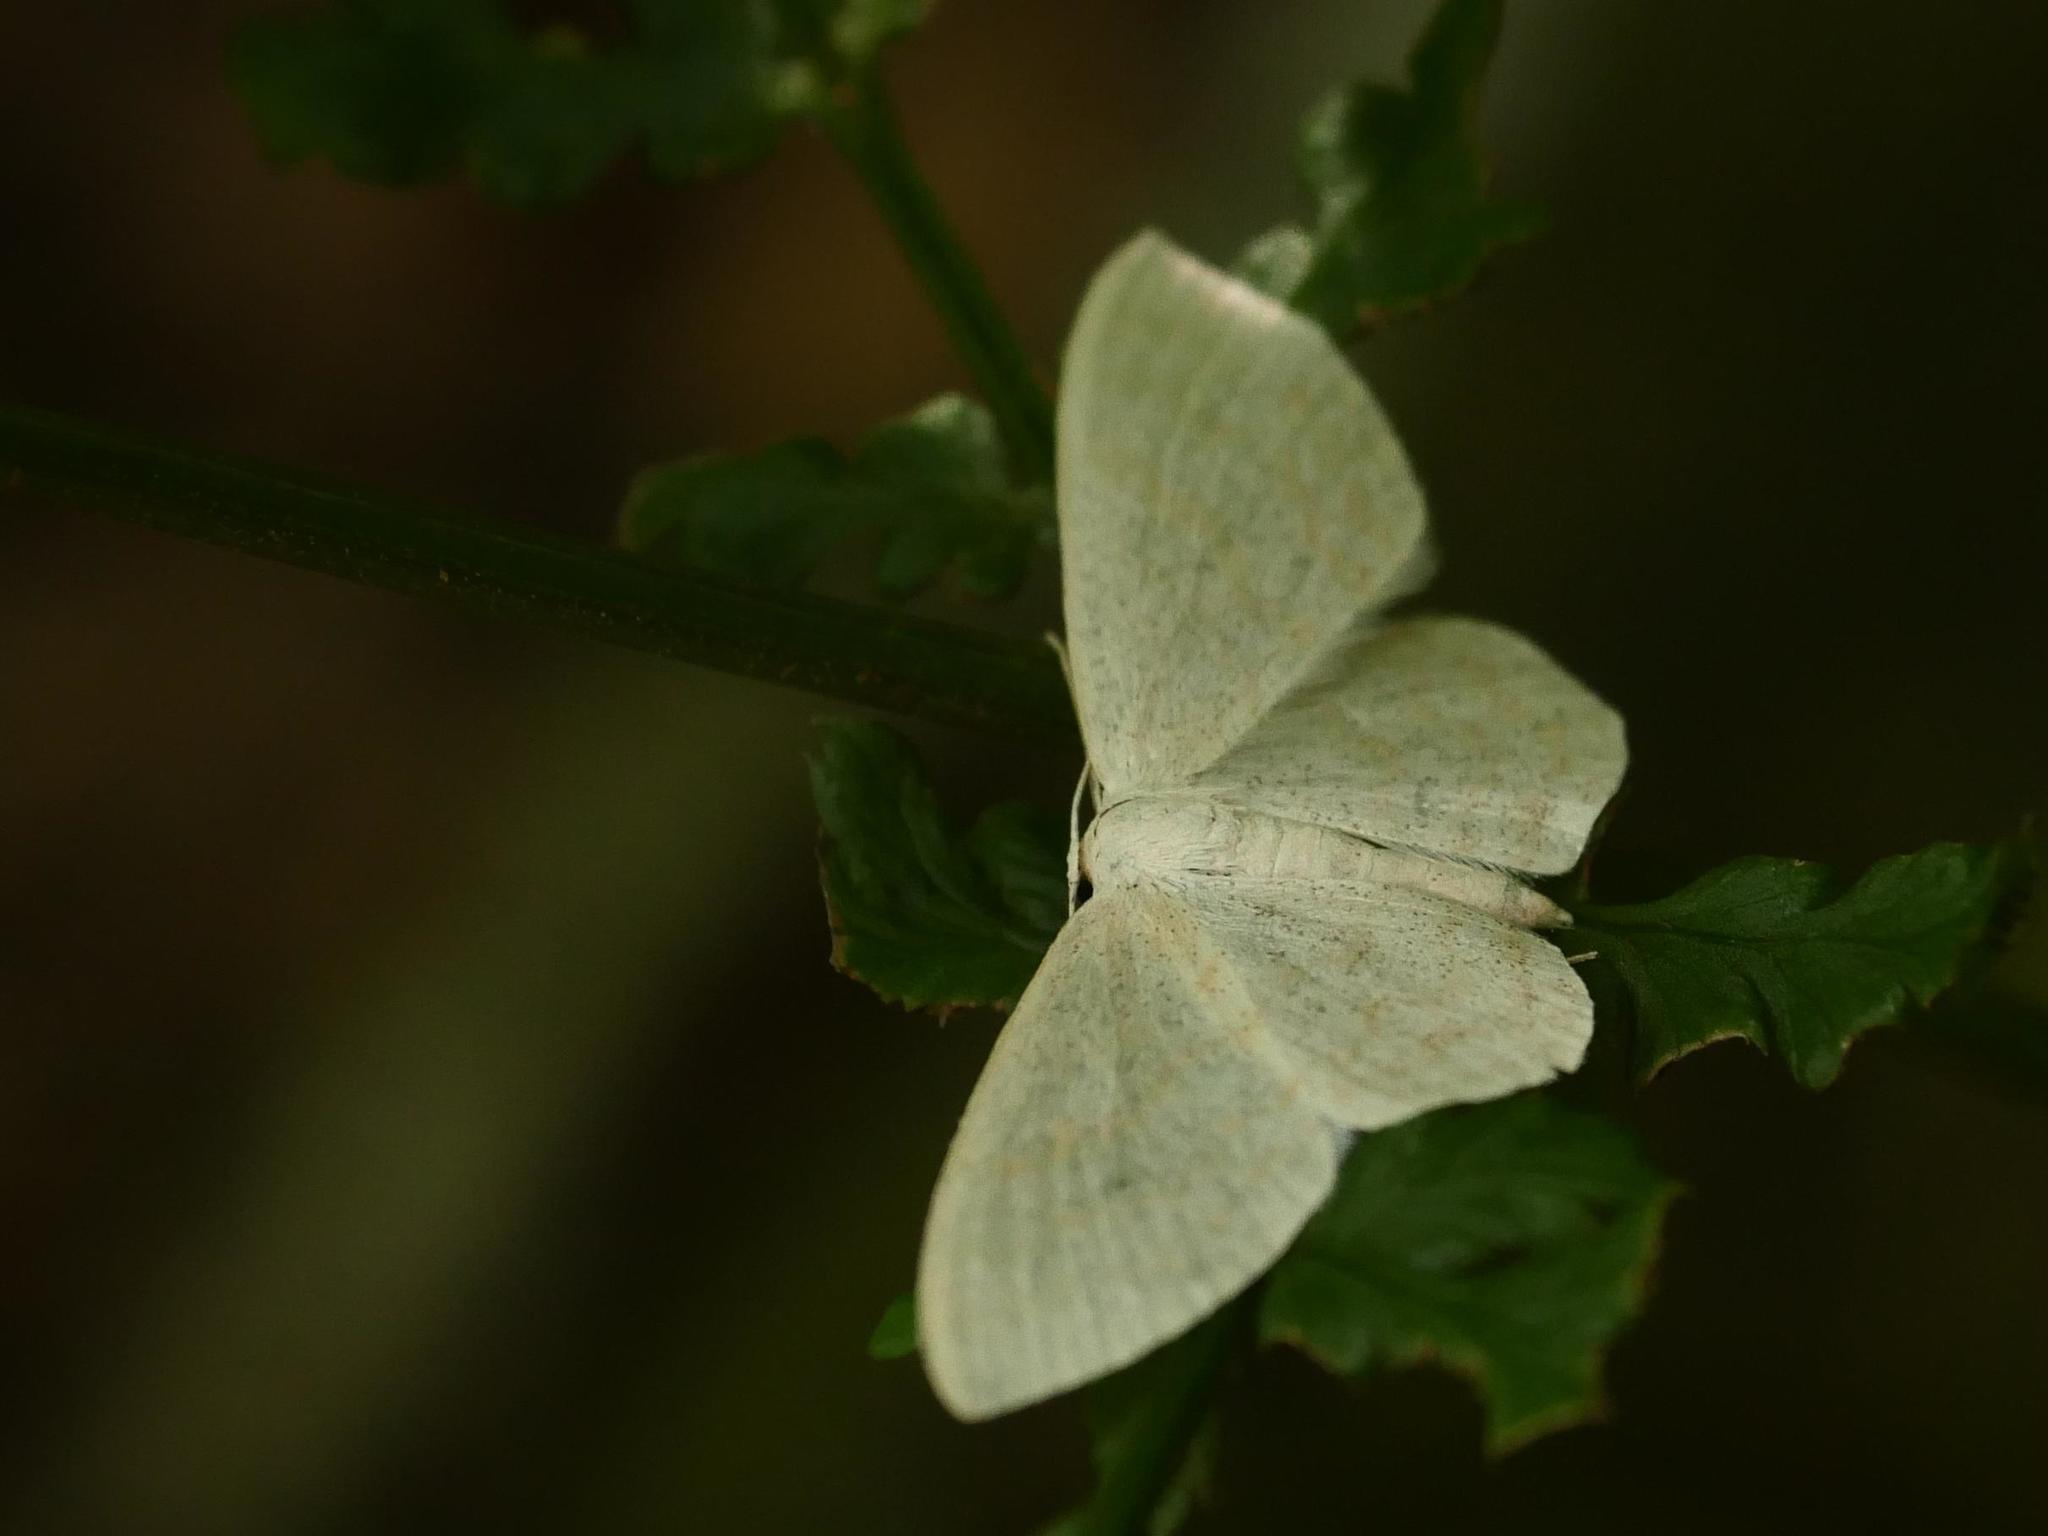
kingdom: Animalia
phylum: Arthropoda
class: Insecta
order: Lepidoptera
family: Geometridae
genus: Scopula
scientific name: Scopula floslactata
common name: Cream wave
